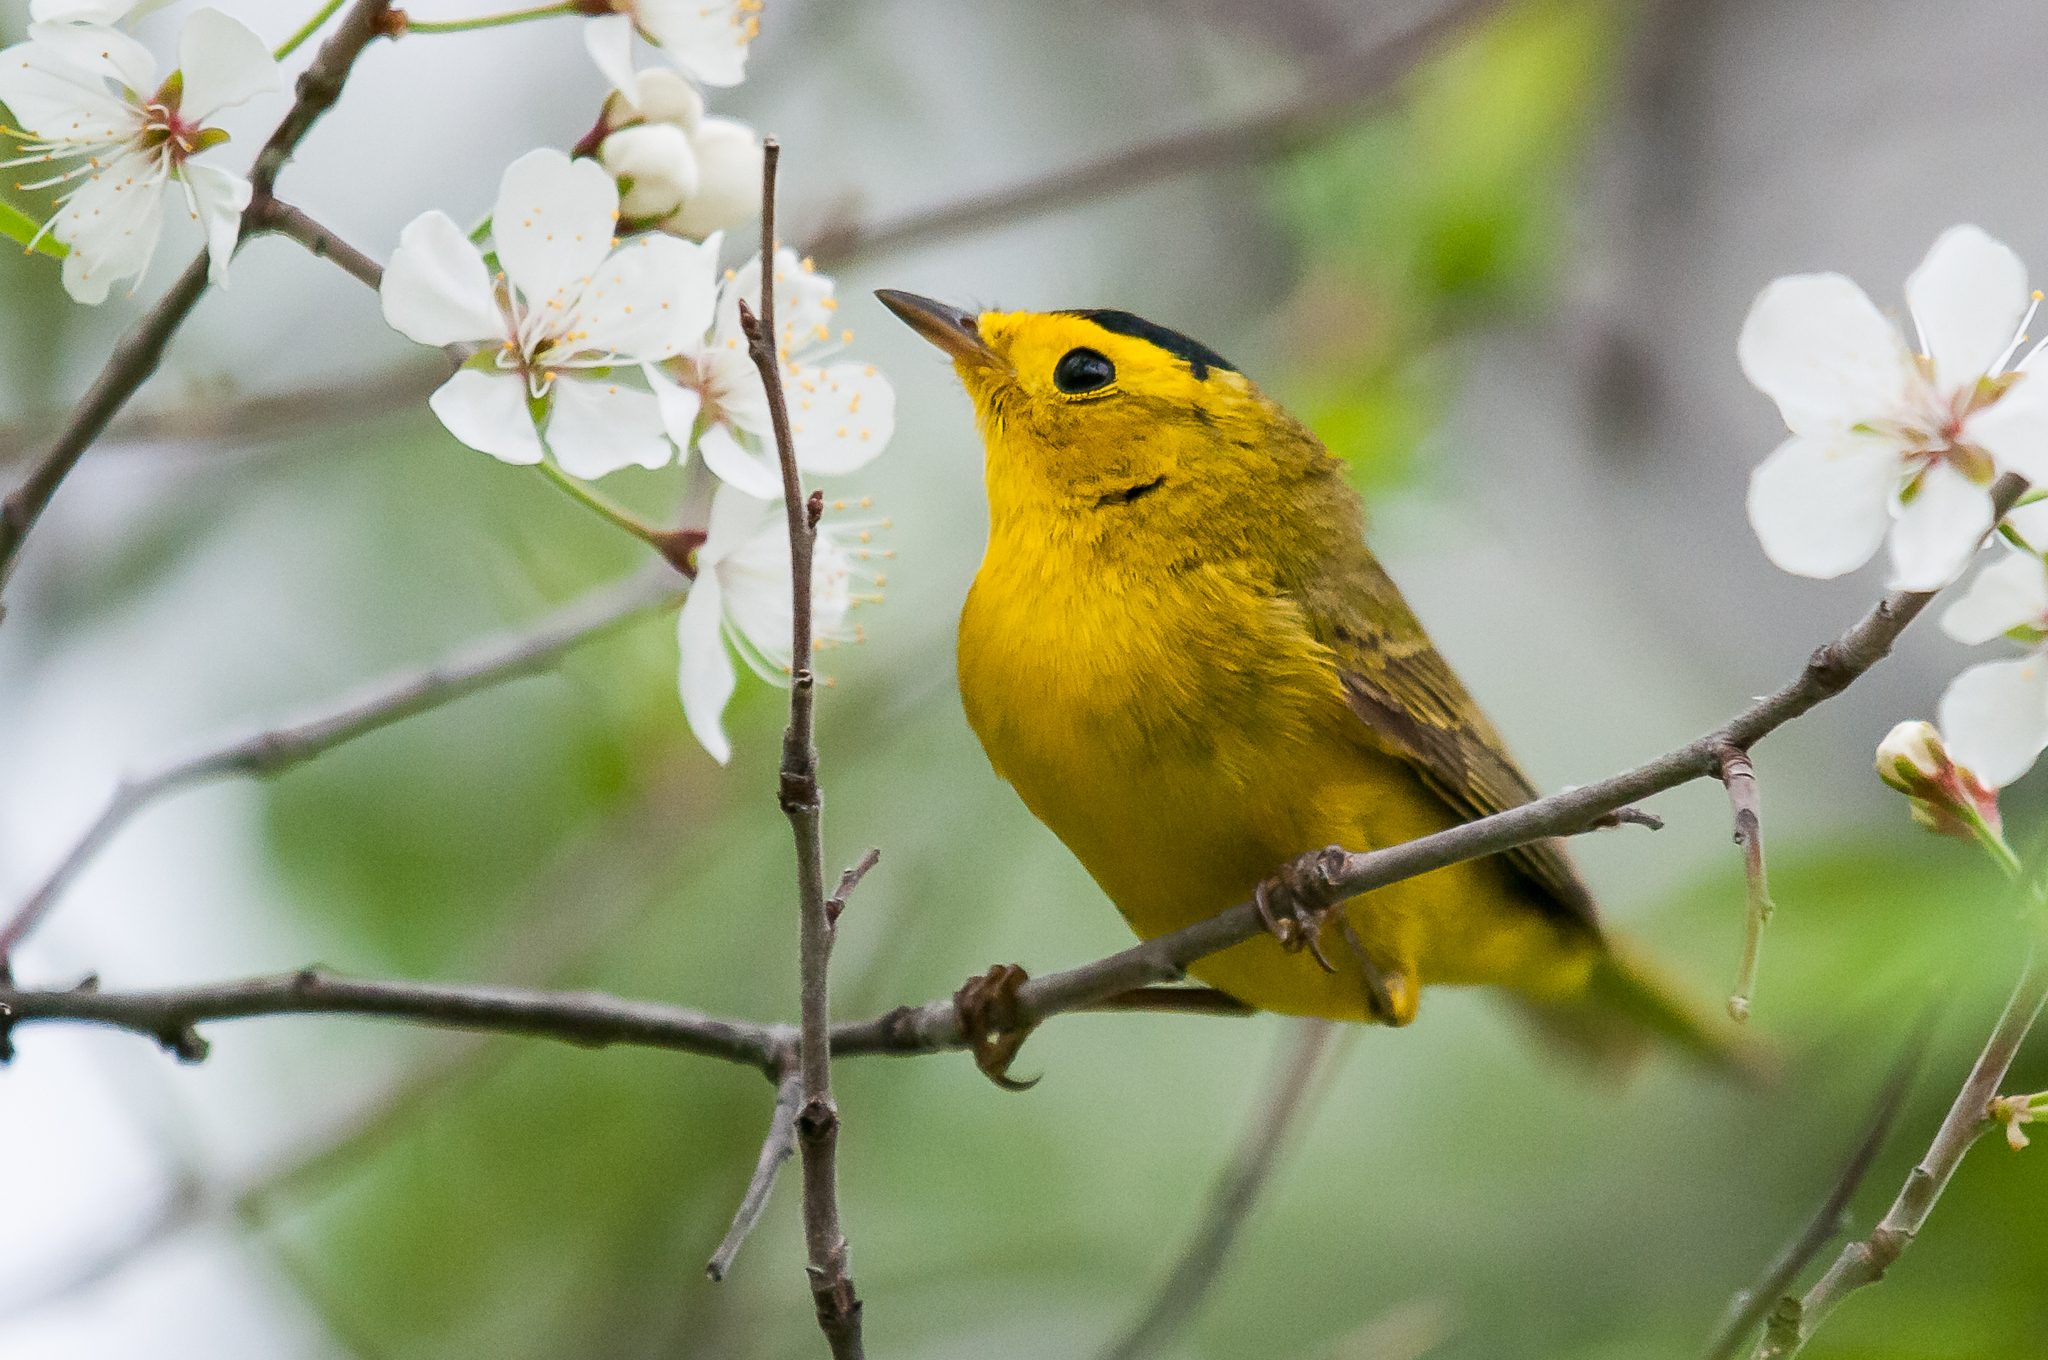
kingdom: Animalia
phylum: Chordata
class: Aves
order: Passeriformes
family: Parulidae
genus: Cardellina
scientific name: Cardellina pusilla
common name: Wilson's warbler
